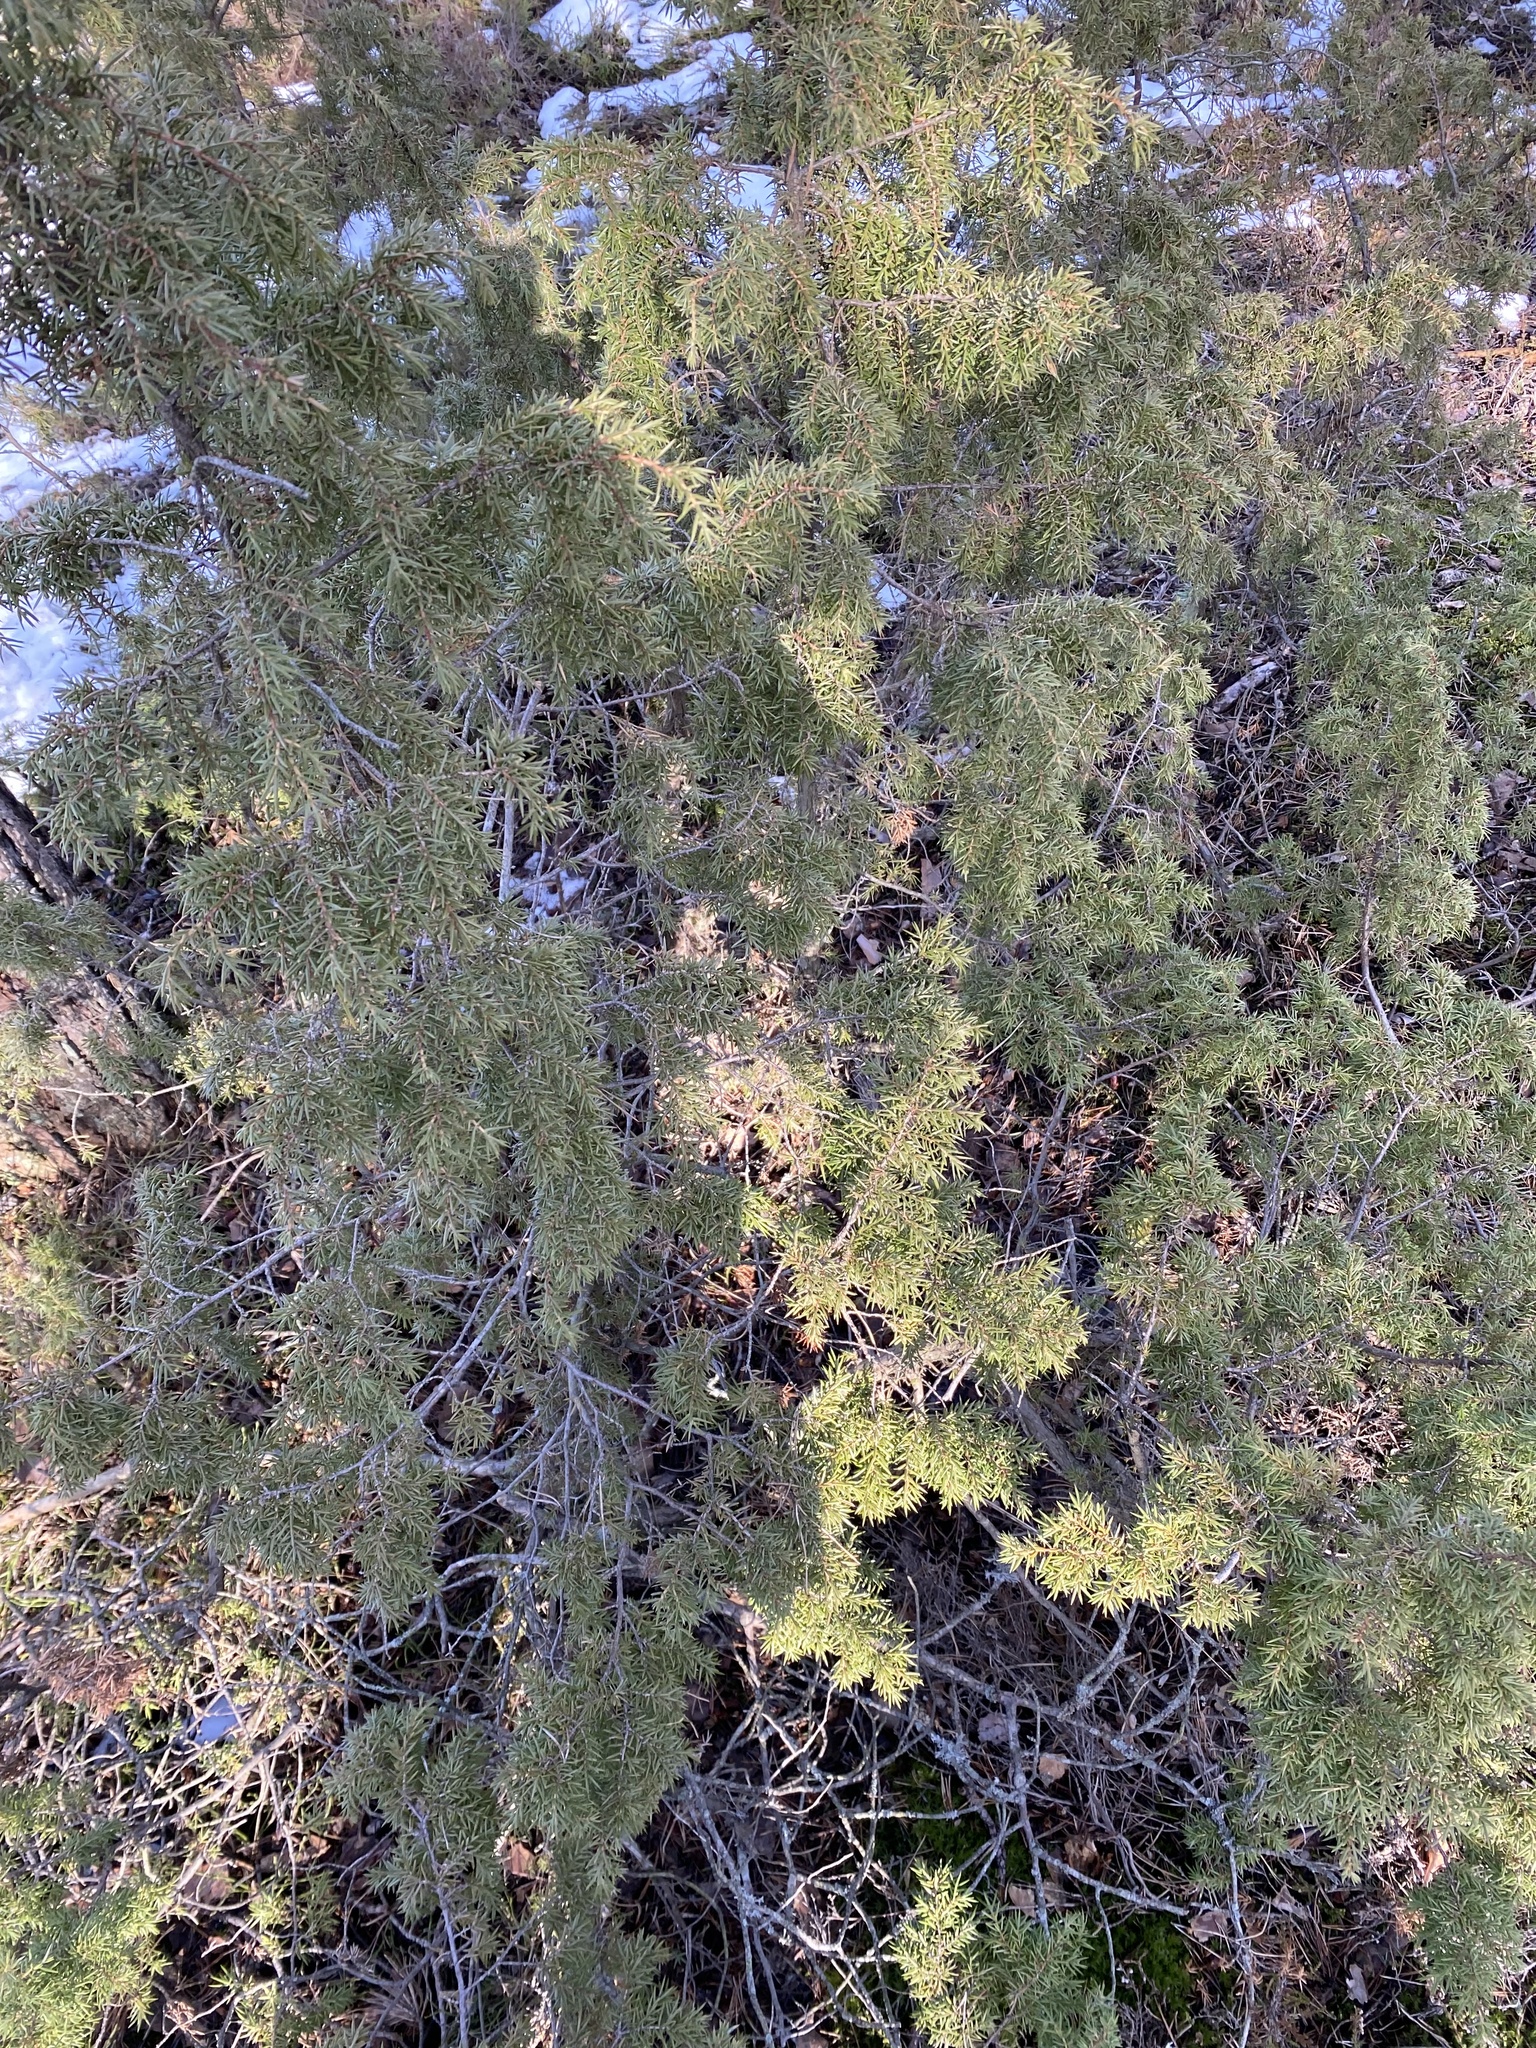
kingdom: Plantae
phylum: Tracheophyta
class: Pinopsida
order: Pinales
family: Cupressaceae
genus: Juniperus
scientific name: Juniperus communis
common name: Common juniper
